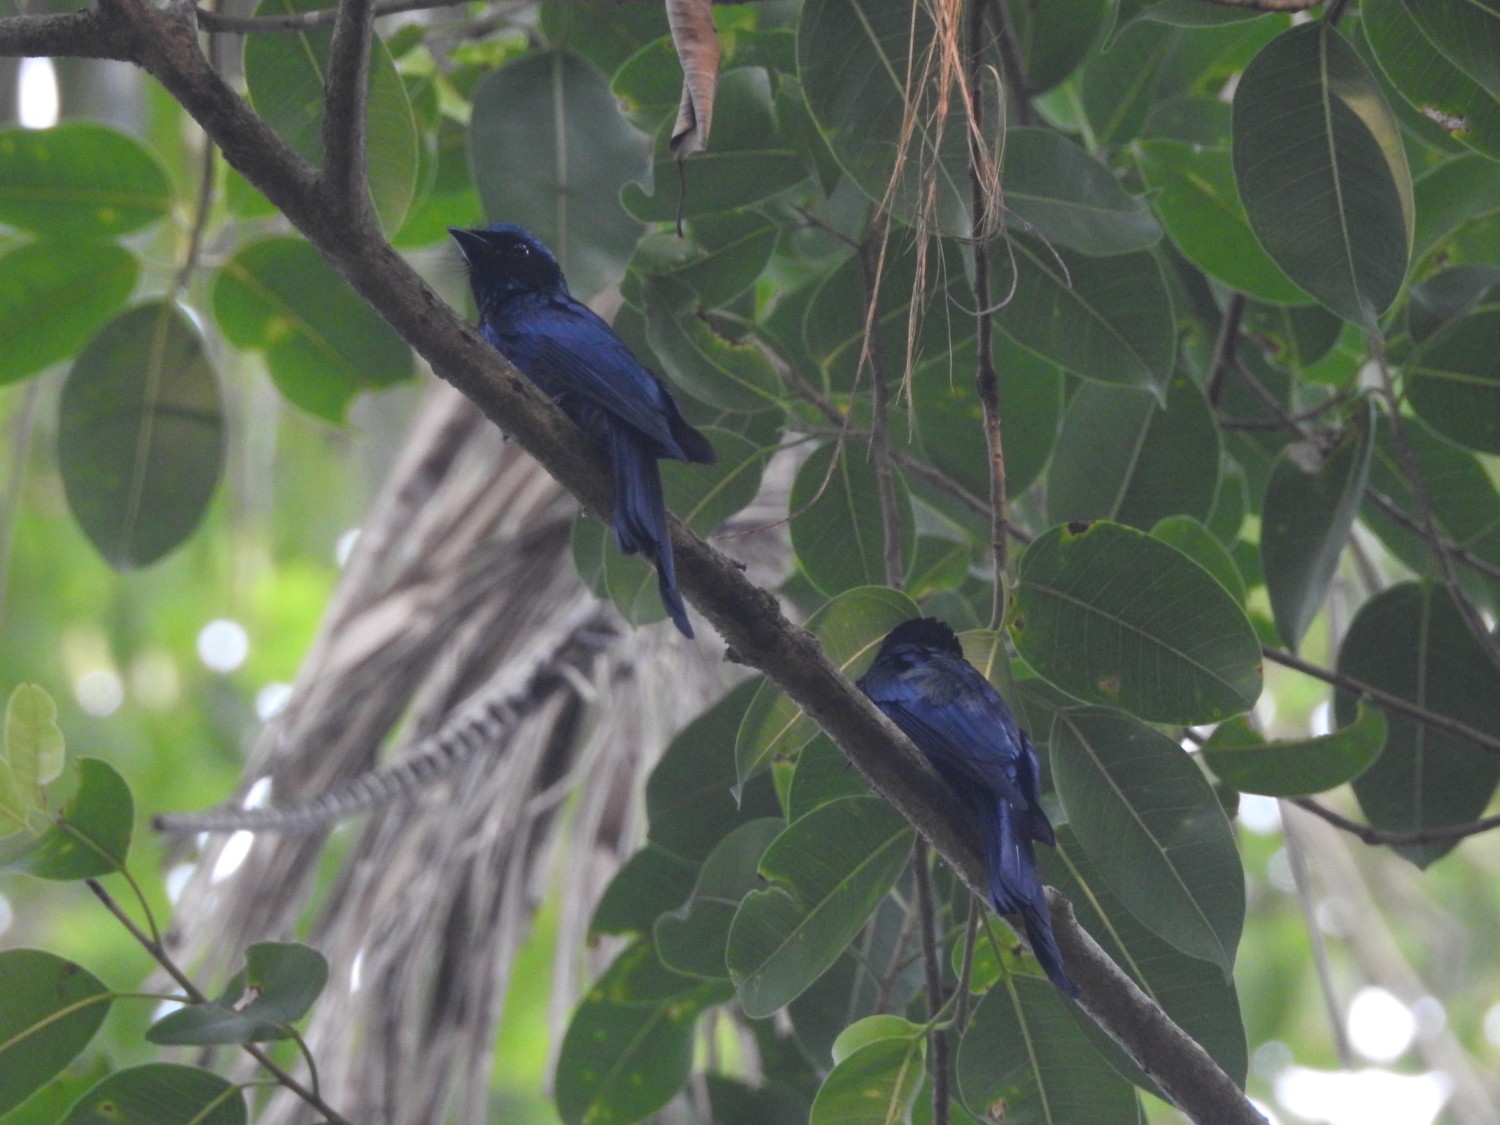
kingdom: Animalia
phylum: Chordata
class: Aves
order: Passeriformes
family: Dicruridae
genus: Dicrurus
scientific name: Dicrurus aeneus
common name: Bronzed drongo
